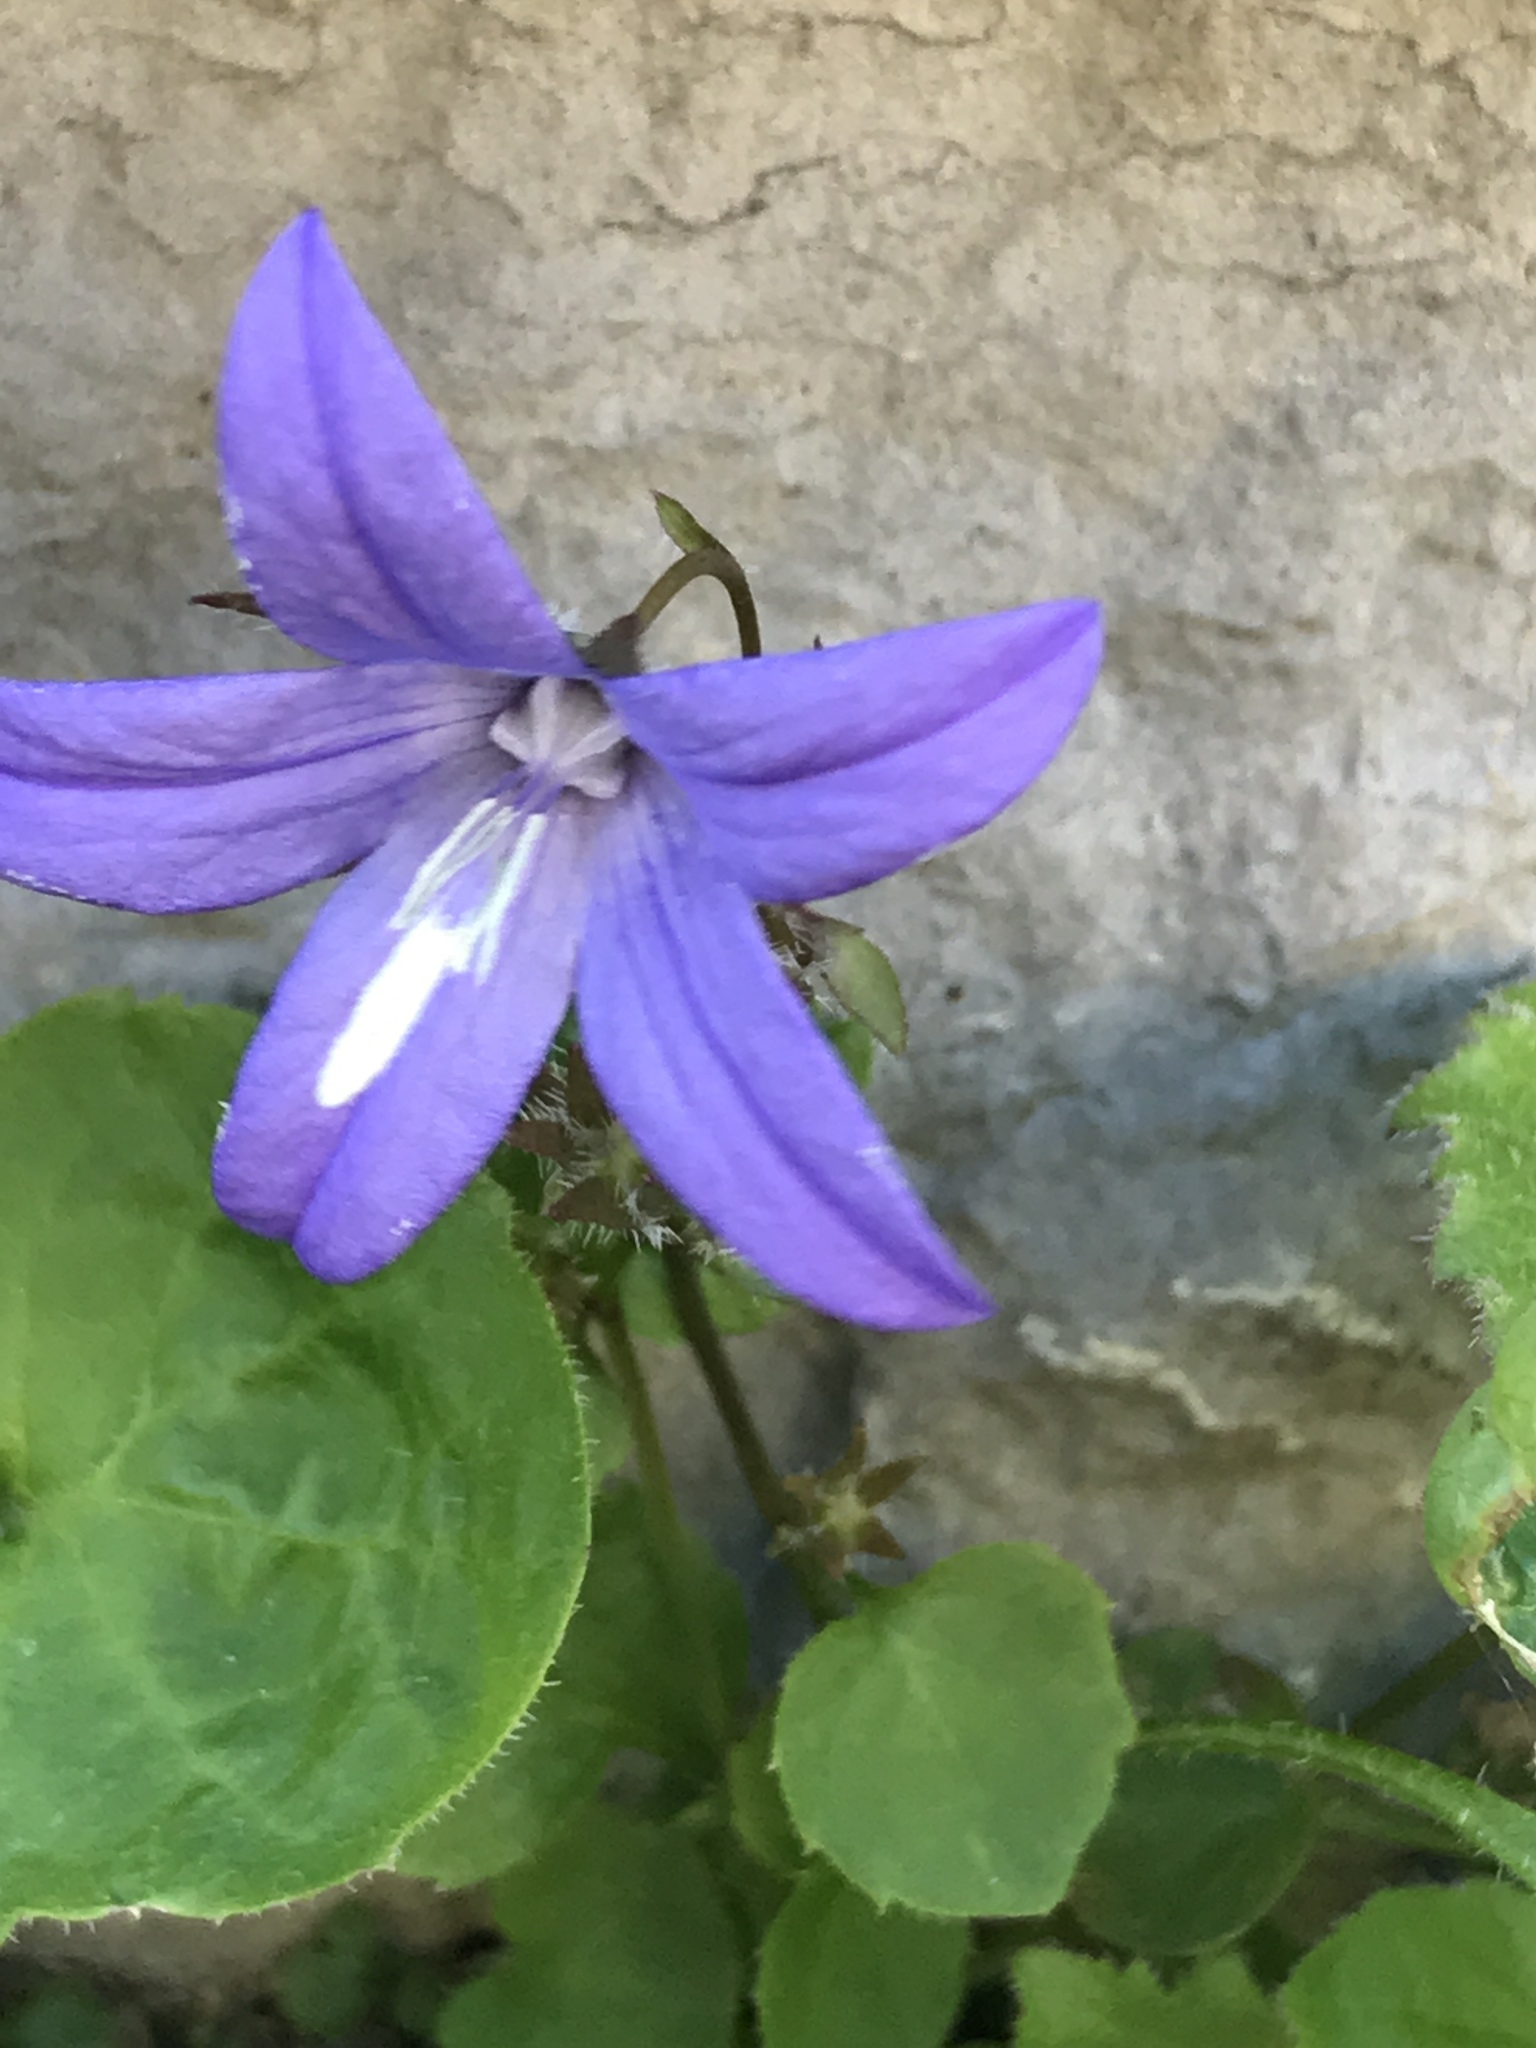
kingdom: Plantae
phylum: Tracheophyta
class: Magnoliopsida
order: Asterales
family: Campanulaceae
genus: Campanula
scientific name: Campanula portenschlagiana
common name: Adria bellflower
